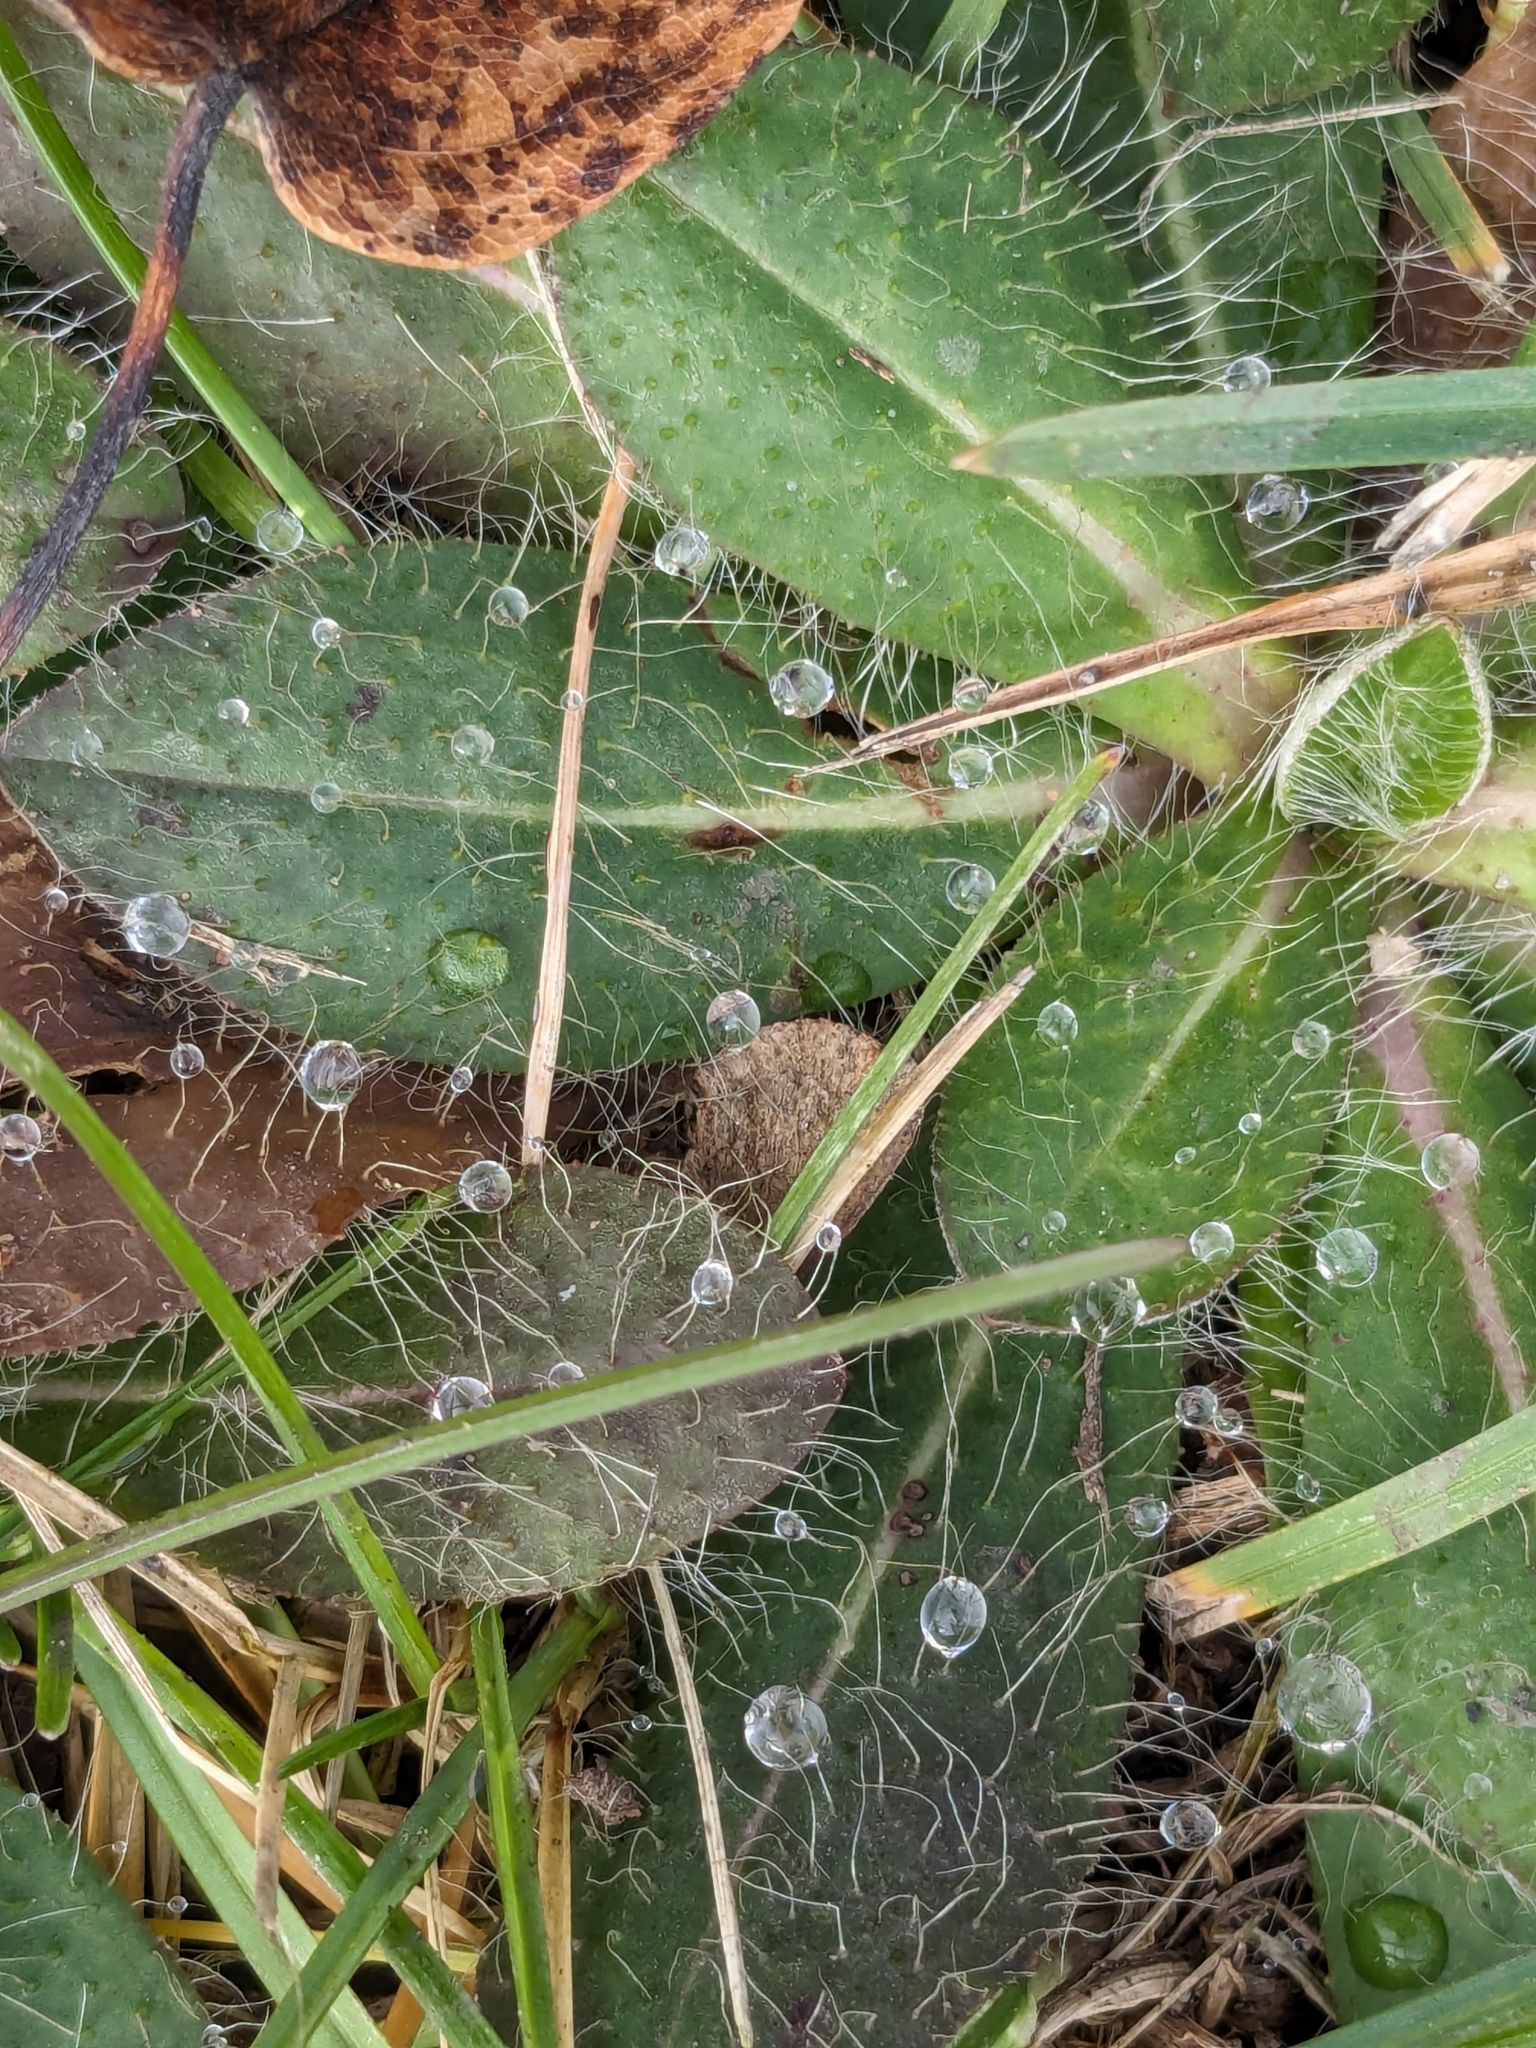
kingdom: Plantae
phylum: Tracheophyta
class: Magnoliopsida
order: Asterales
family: Asteraceae
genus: Pilosella
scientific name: Pilosella officinarum
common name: Mouse-ear hawkweed
